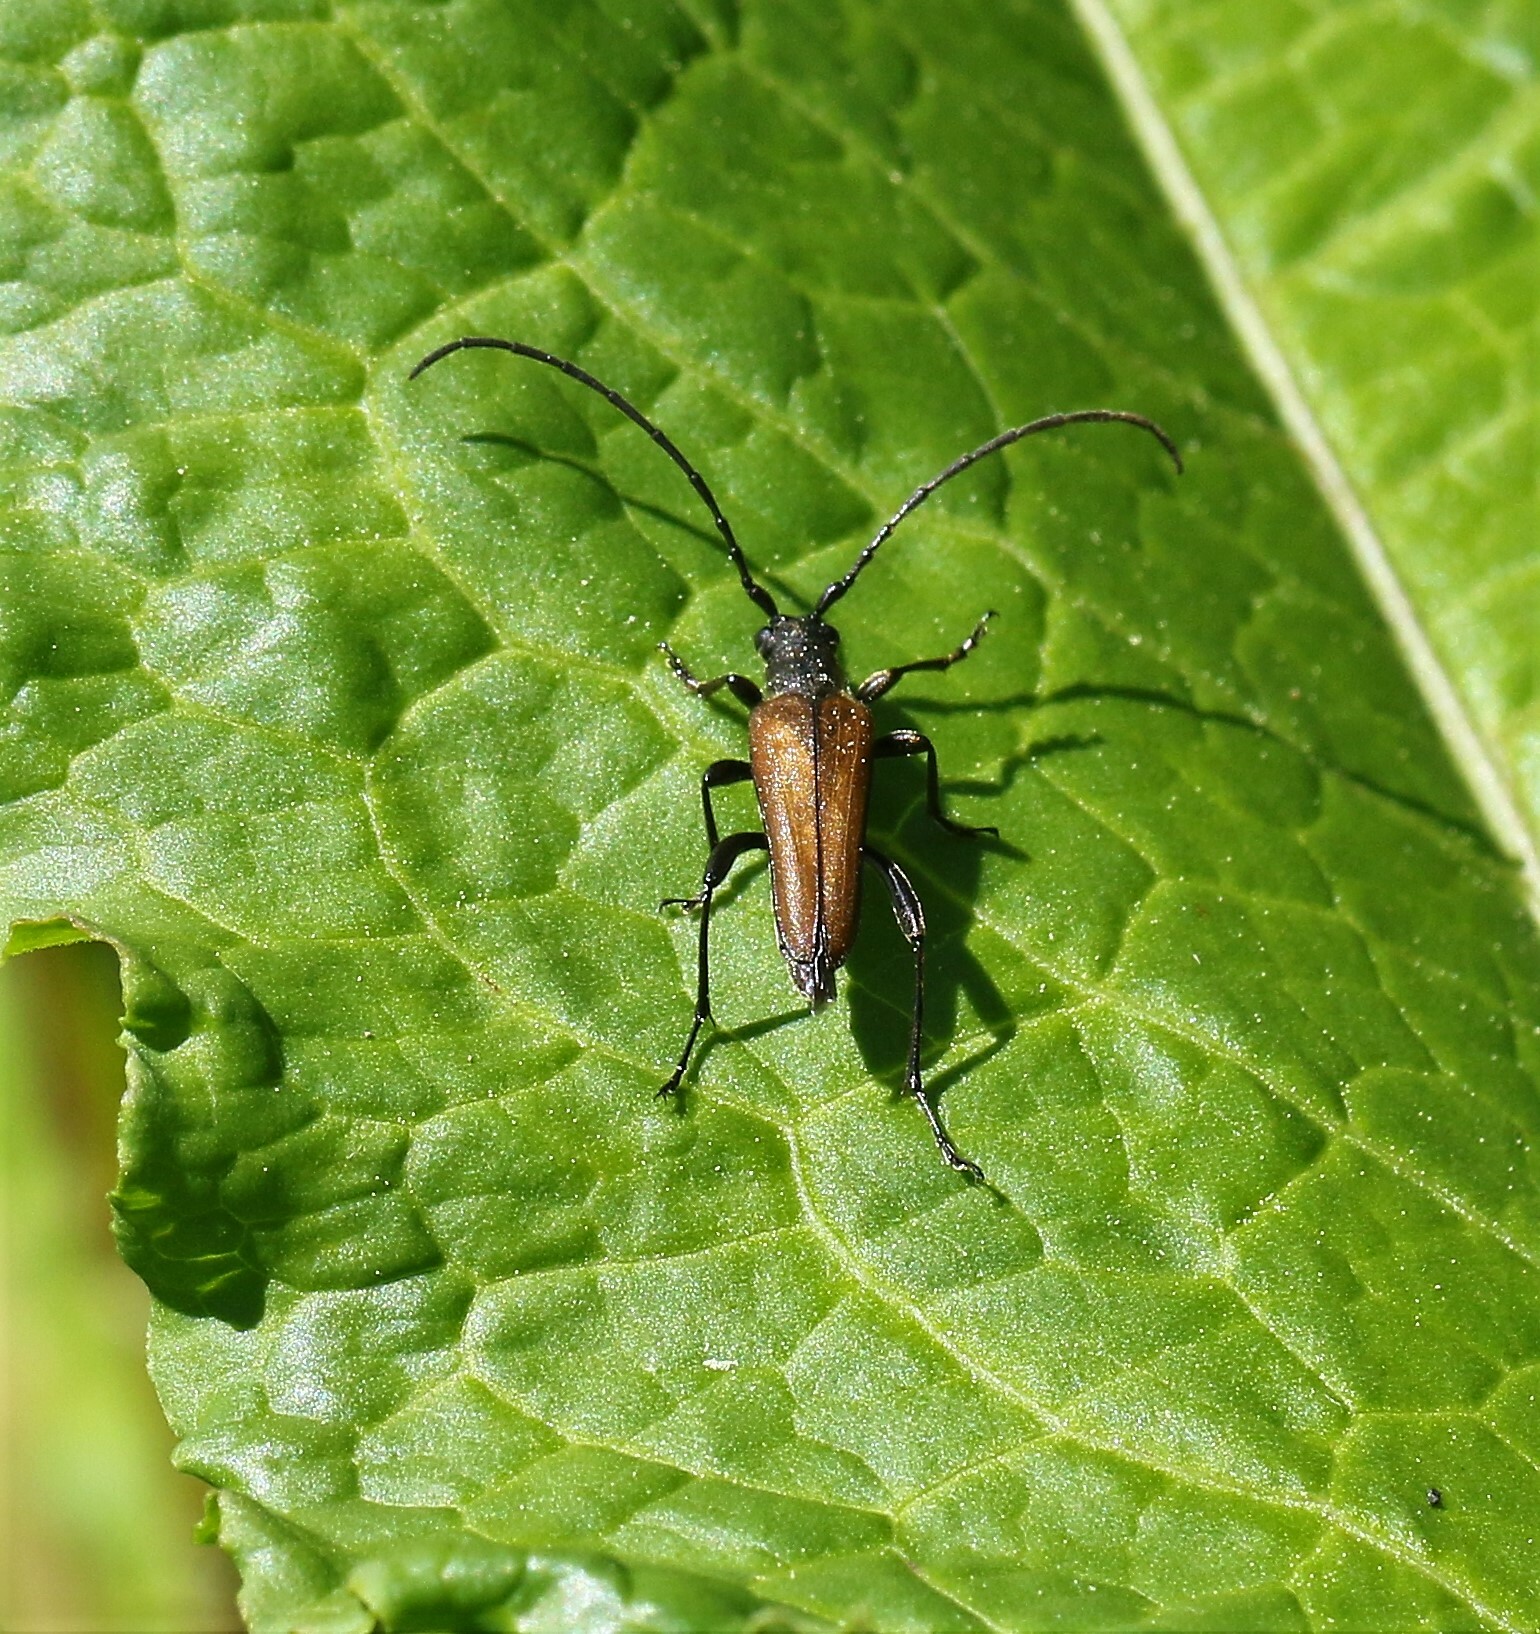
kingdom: Animalia
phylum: Arthropoda
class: Insecta
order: Coleoptera
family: Cerambycidae
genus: Trachysida
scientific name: Trachysida mutabilis
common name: Changeable flower longhorn
